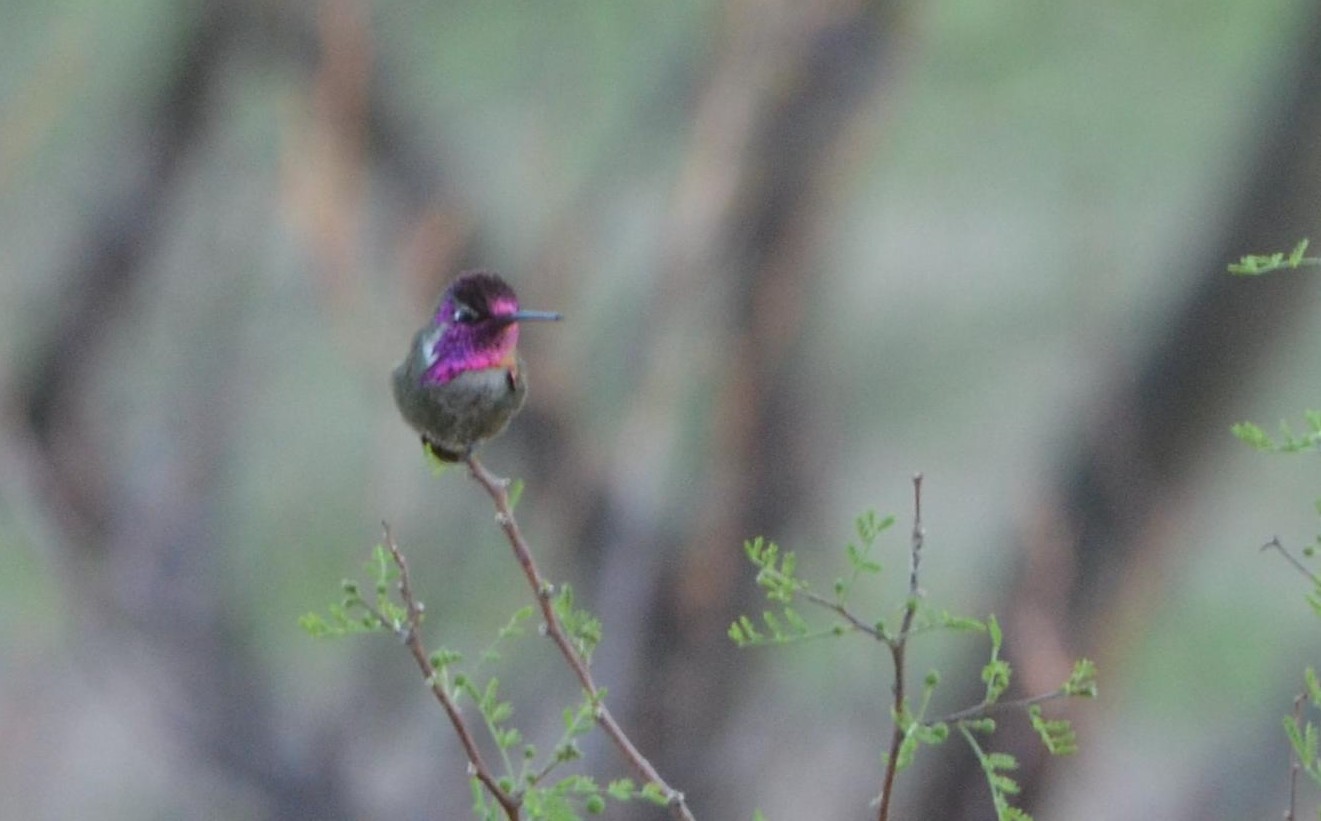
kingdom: Animalia
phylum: Chordata
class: Aves
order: Apodiformes
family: Trochilidae
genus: Calypte
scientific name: Calypte costae
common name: Costa's hummingbird
